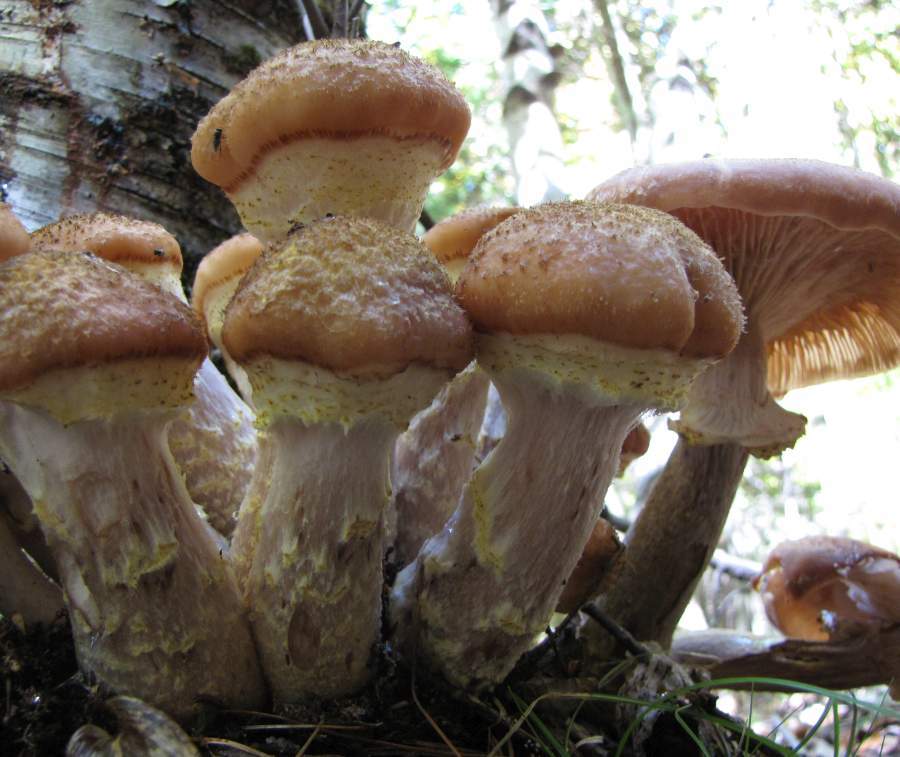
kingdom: Fungi
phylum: Basidiomycota
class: Agaricomycetes
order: Agaricales
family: Physalacriaceae
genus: Armillaria
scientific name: Armillaria gallica
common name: Bulbous honey fungus
